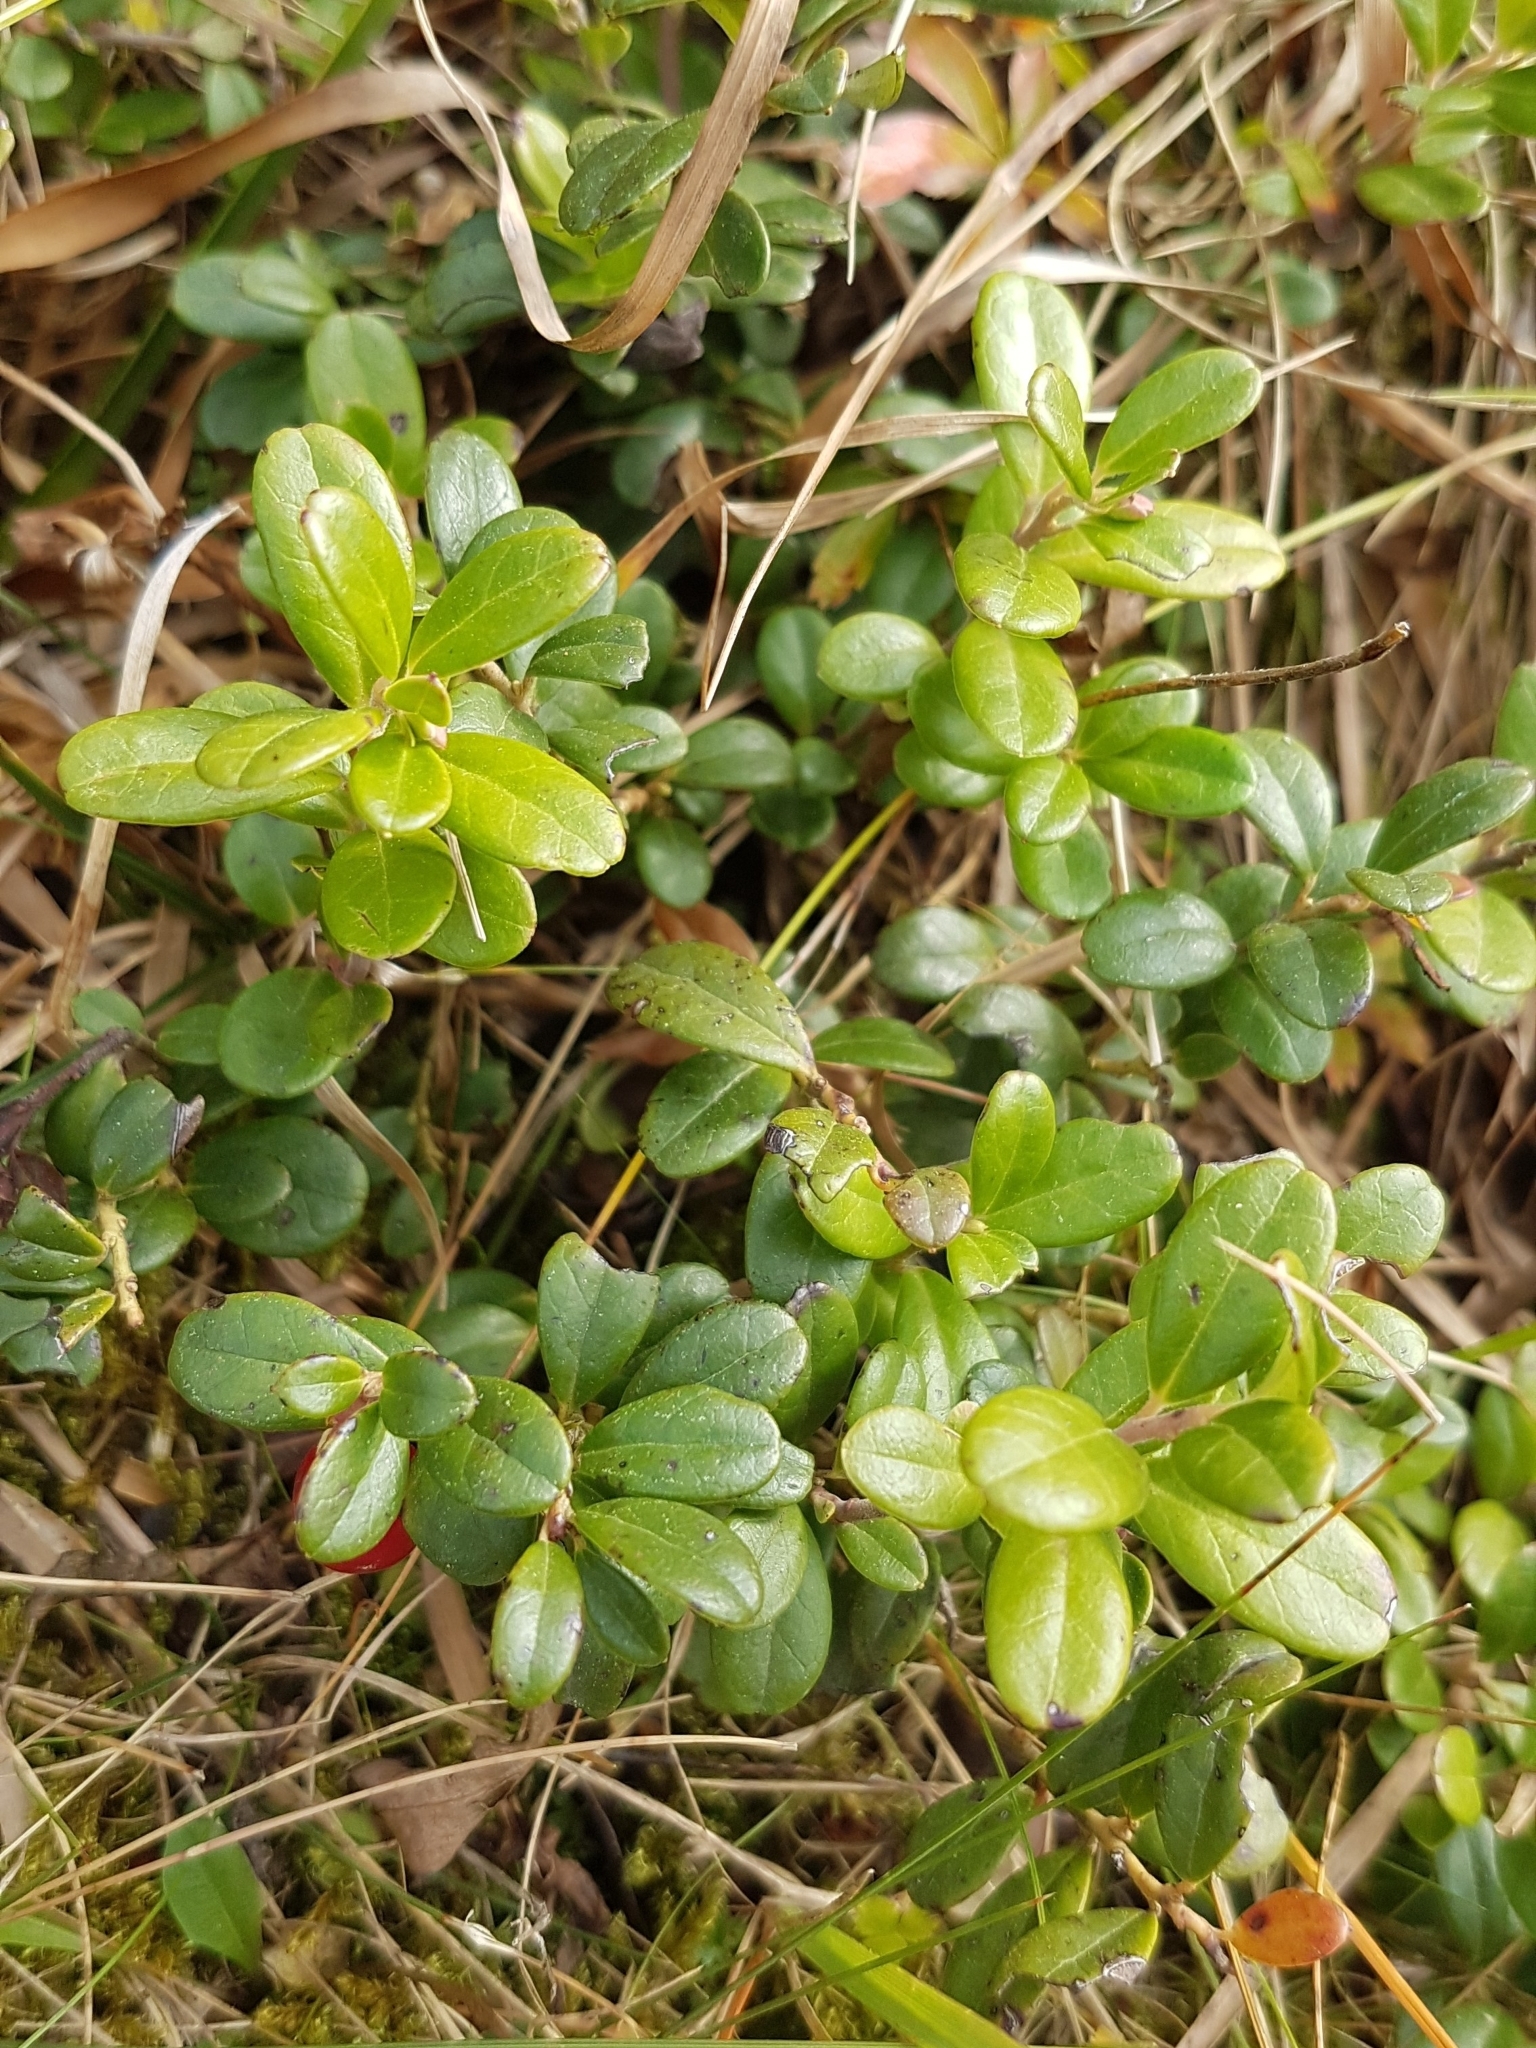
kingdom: Plantae
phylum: Tracheophyta
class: Magnoliopsida
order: Ericales
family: Ericaceae
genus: Vaccinium
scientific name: Vaccinium vitis-idaea
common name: Cowberry
